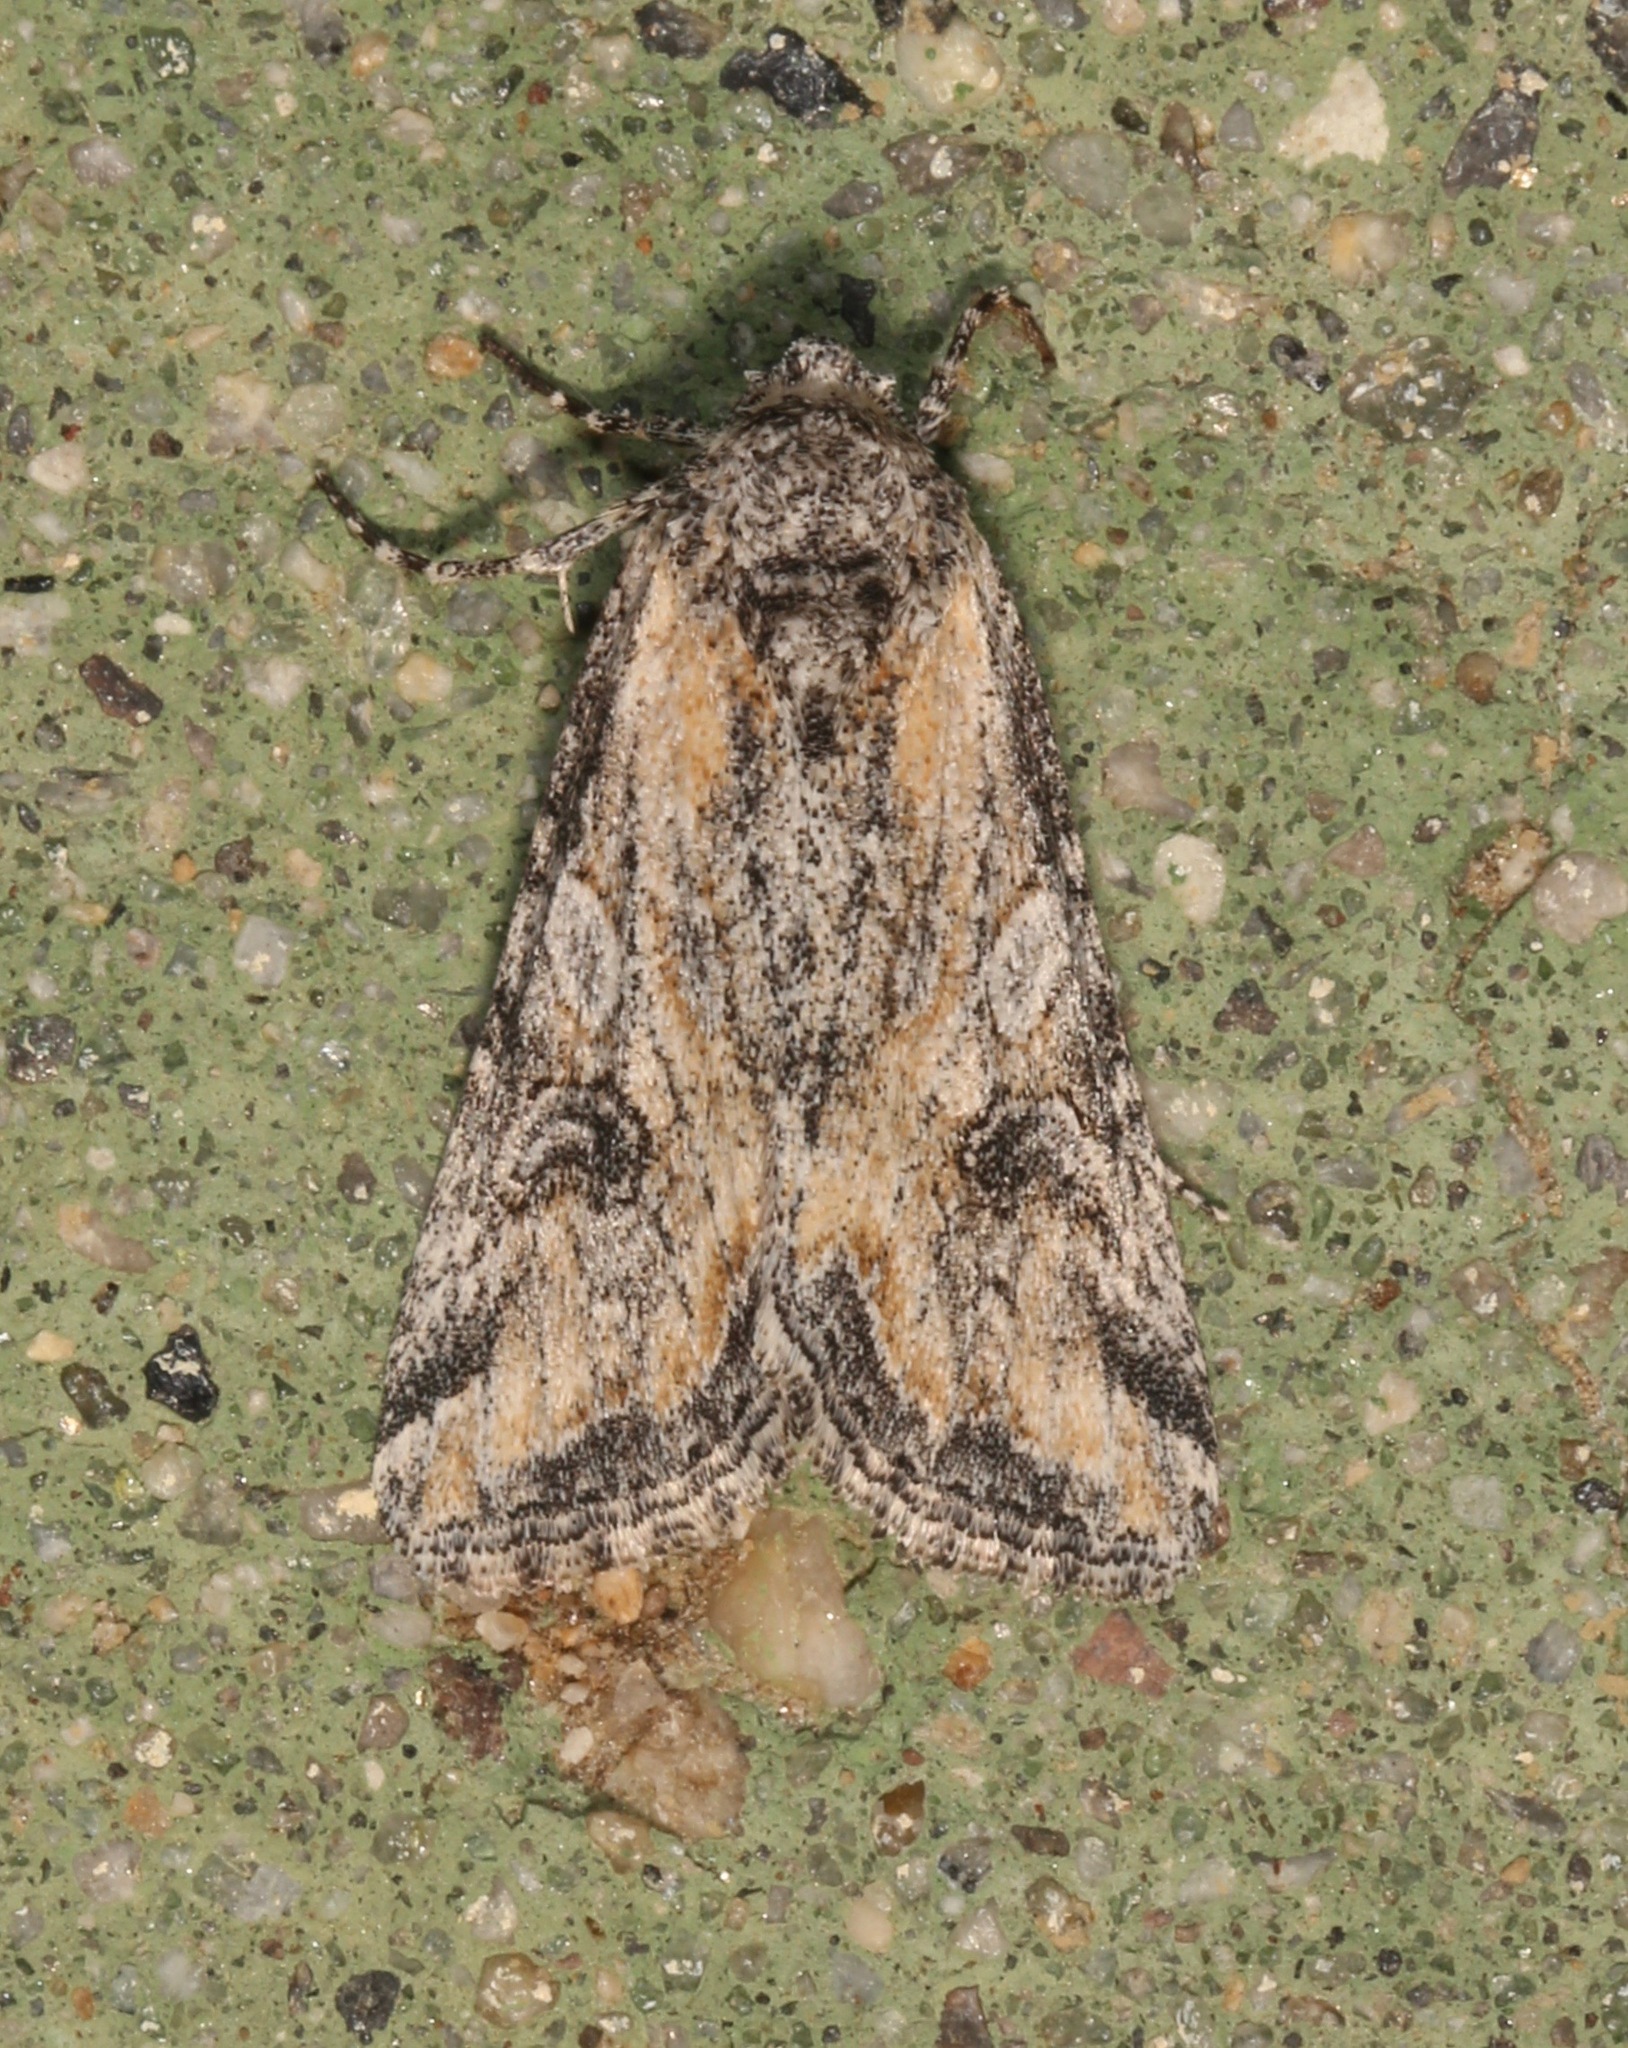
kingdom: Animalia
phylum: Arthropoda
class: Insecta
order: Lepidoptera
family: Noctuidae
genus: Hadenella
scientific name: Hadenella pergentilis
